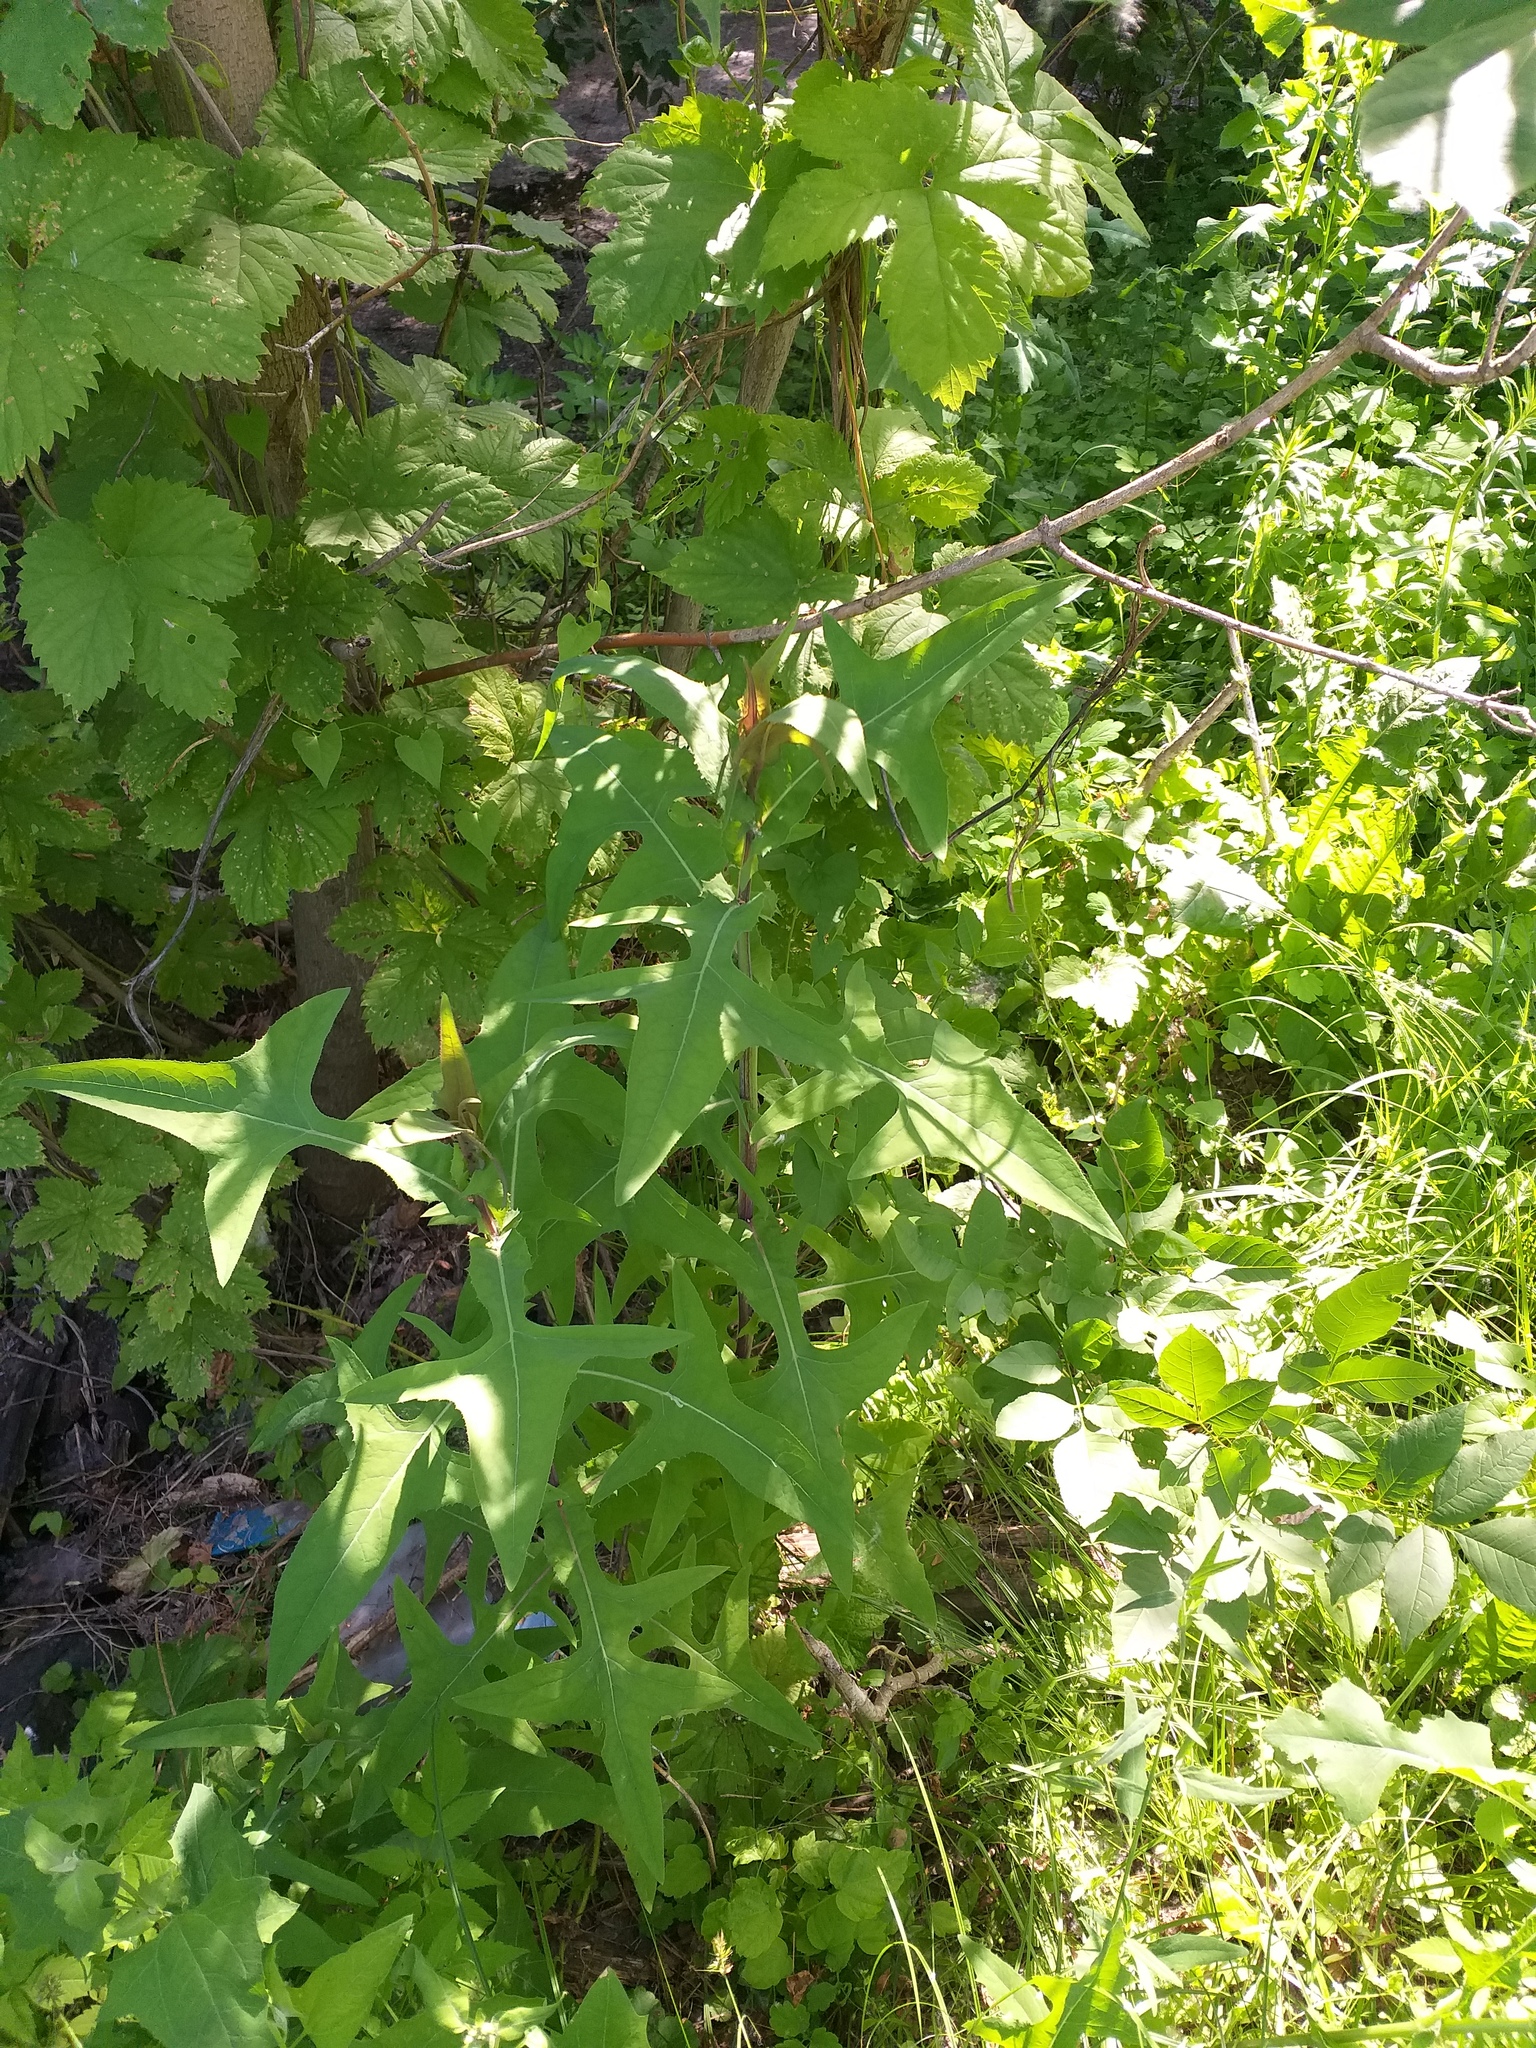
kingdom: Plantae
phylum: Tracheophyta
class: Magnoliopsida
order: Asterales
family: Asteraceae
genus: Sonchus
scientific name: Sonchus palustris
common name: Marsh sow-thistle
